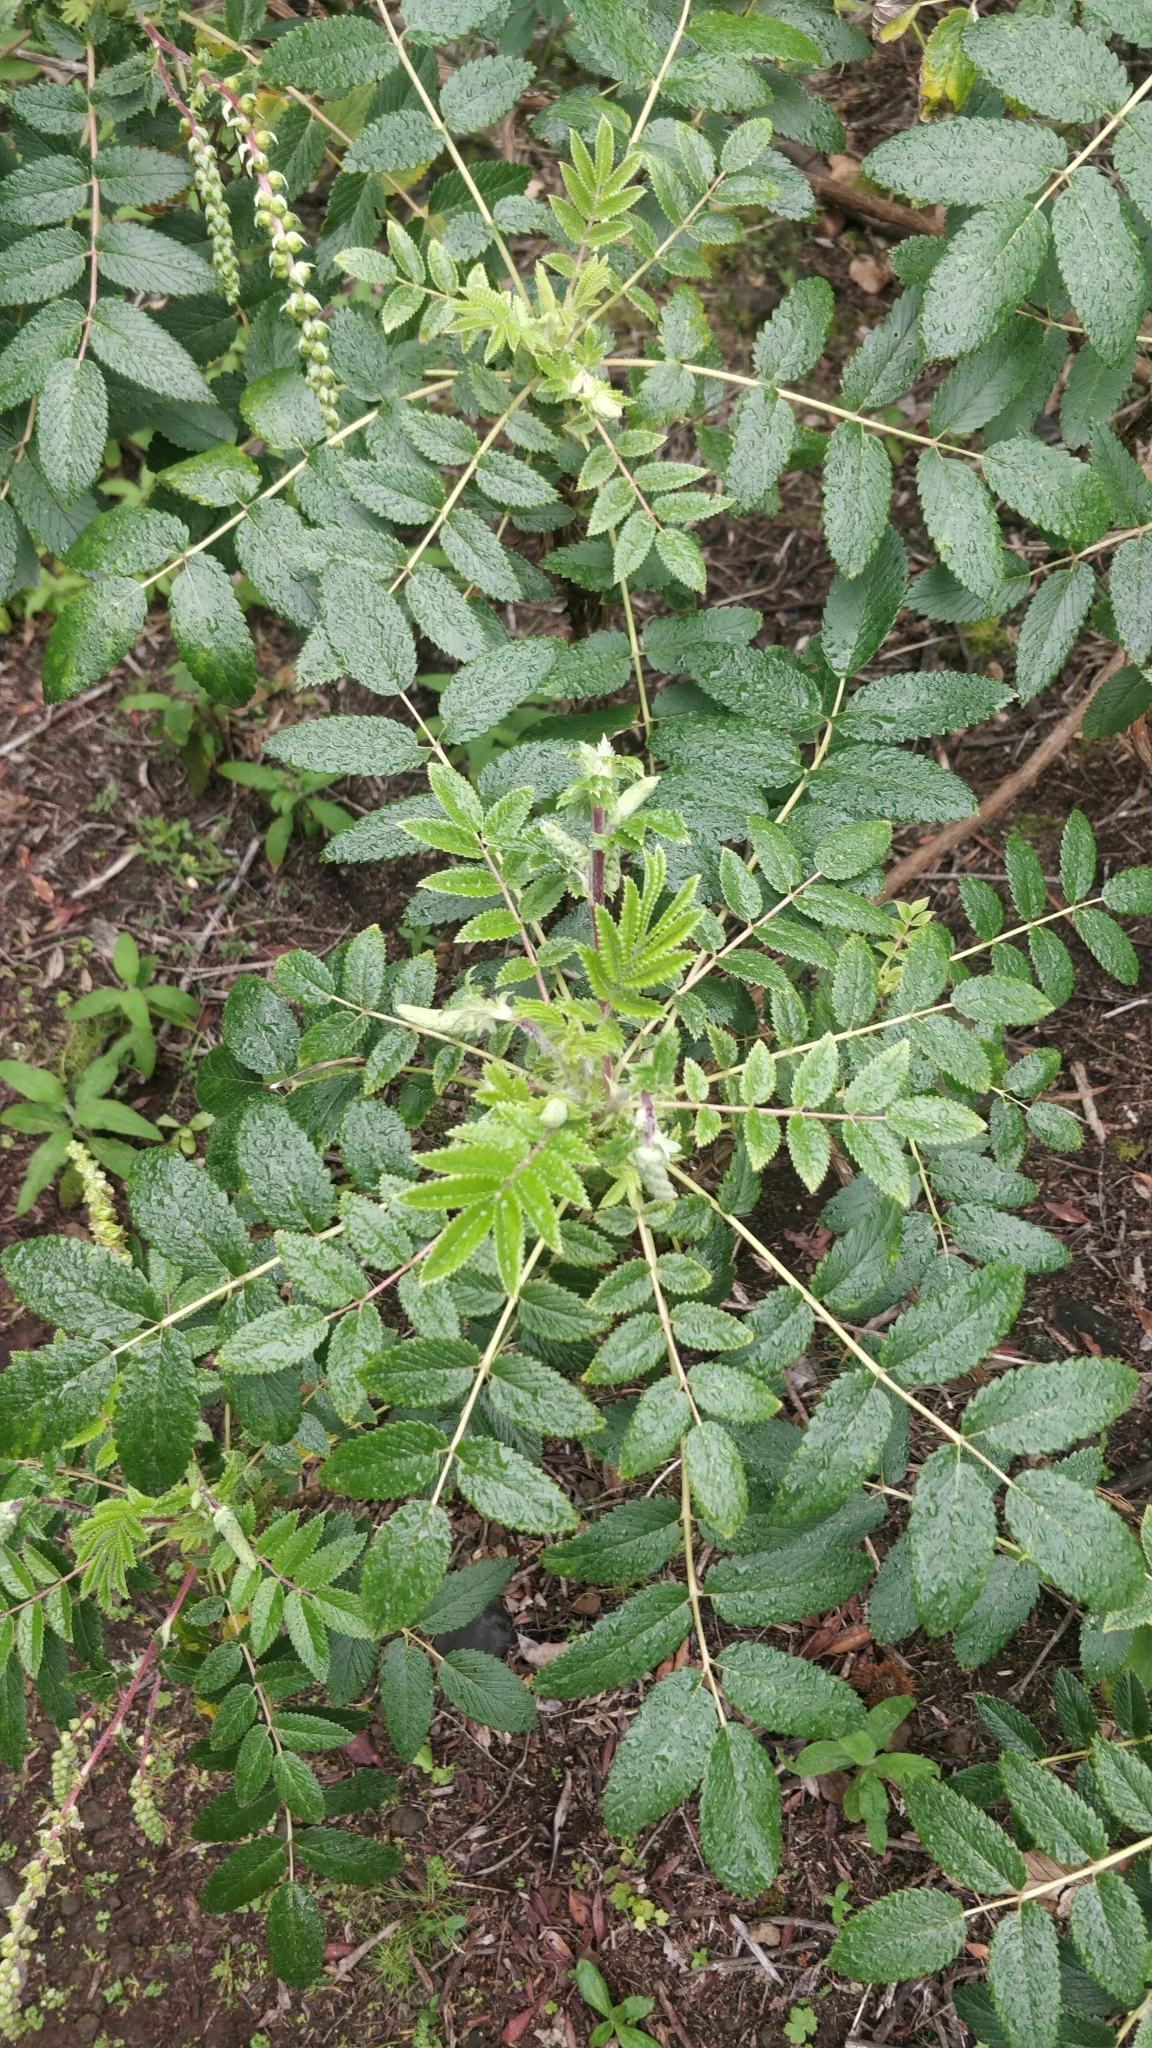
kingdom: Plantae
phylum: Tracheophyta
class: Magnoliopsida
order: Rosales
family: Rosaceae
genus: Bencomia
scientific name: Bencomia caudata
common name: Bencomia
